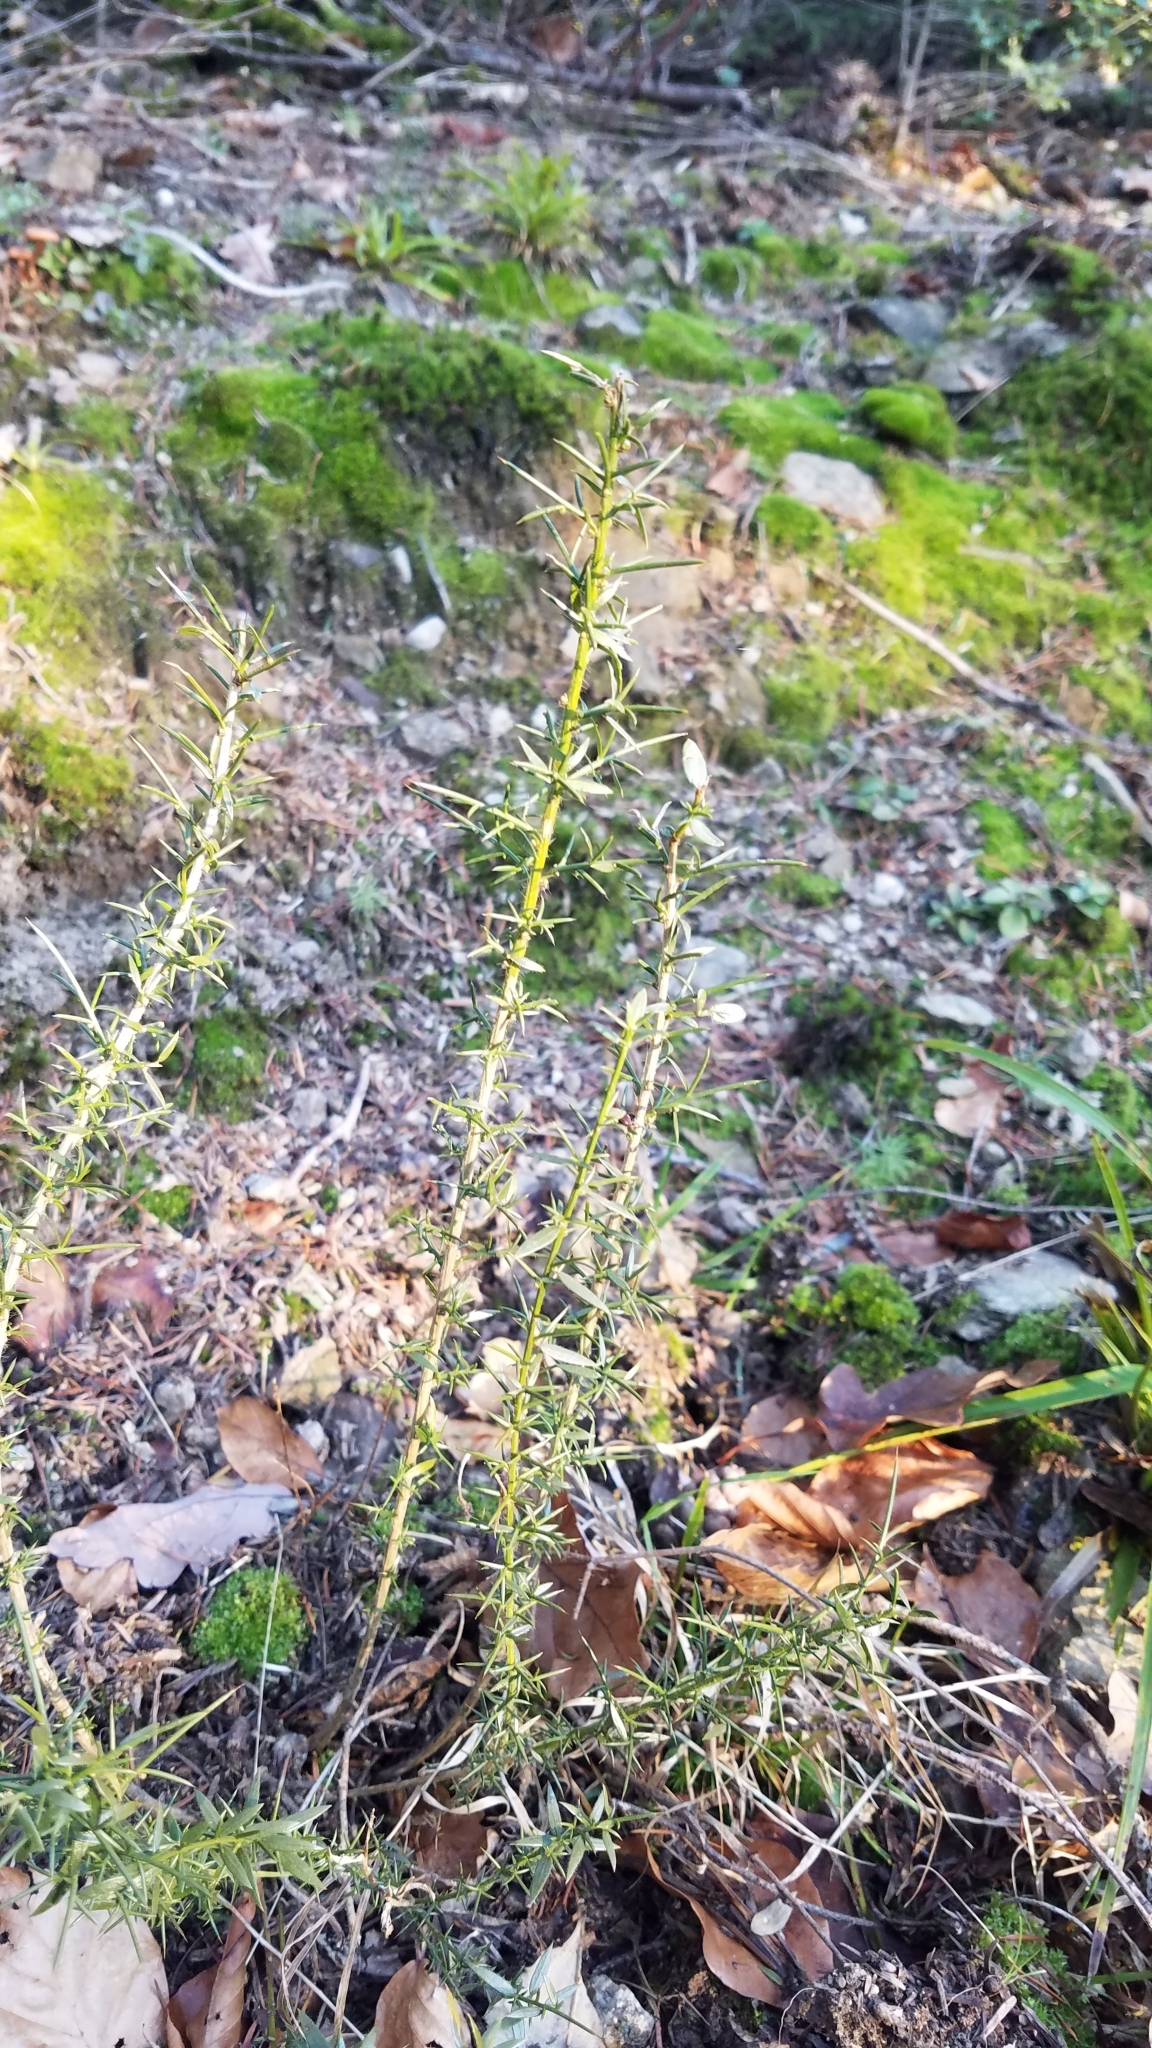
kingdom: Plantae
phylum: Tracheophyta
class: Magnoliopsida
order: Fabales
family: Fabaceae
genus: Ulex
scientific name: Ulex europaeus
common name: Common gorse
